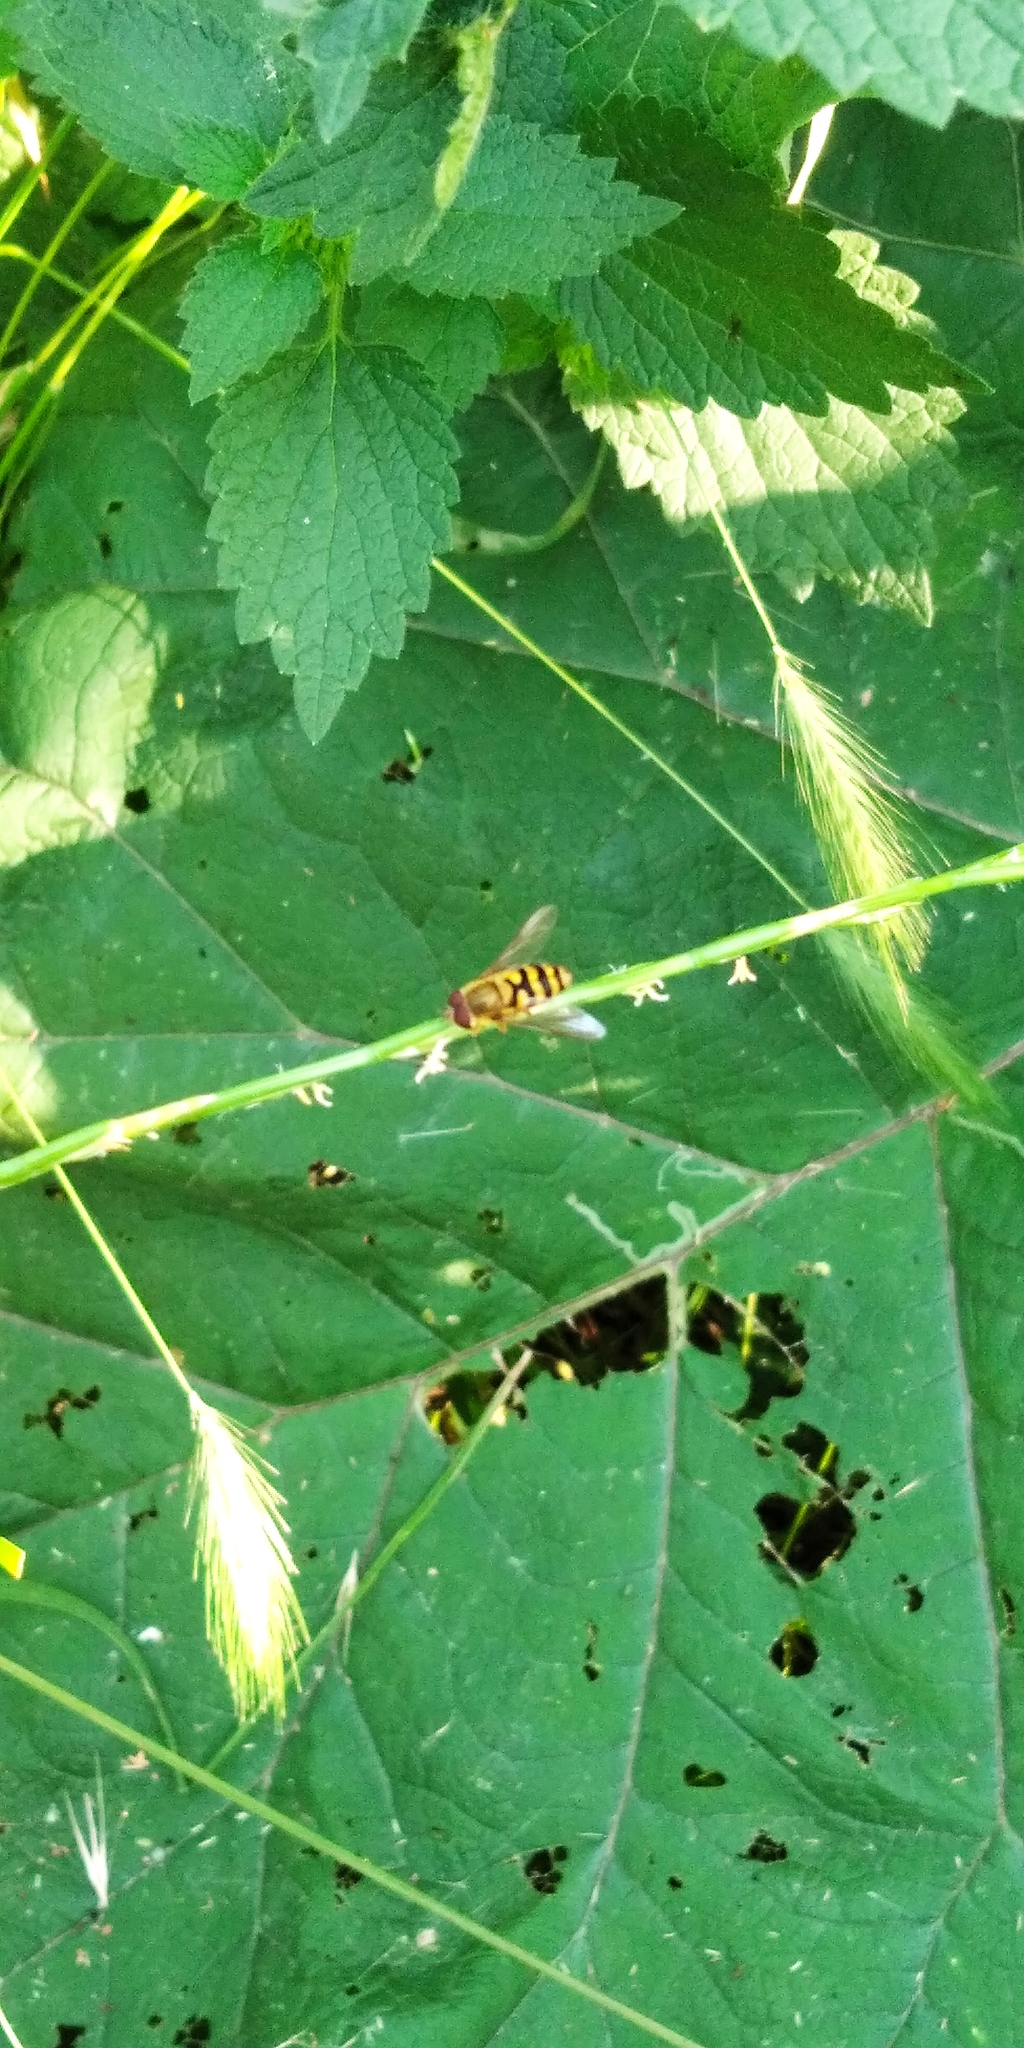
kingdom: Animalia
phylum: Arthropoda
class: Insecta
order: Diptera
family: Syrphidae
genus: Syrphus
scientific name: Syrphus
